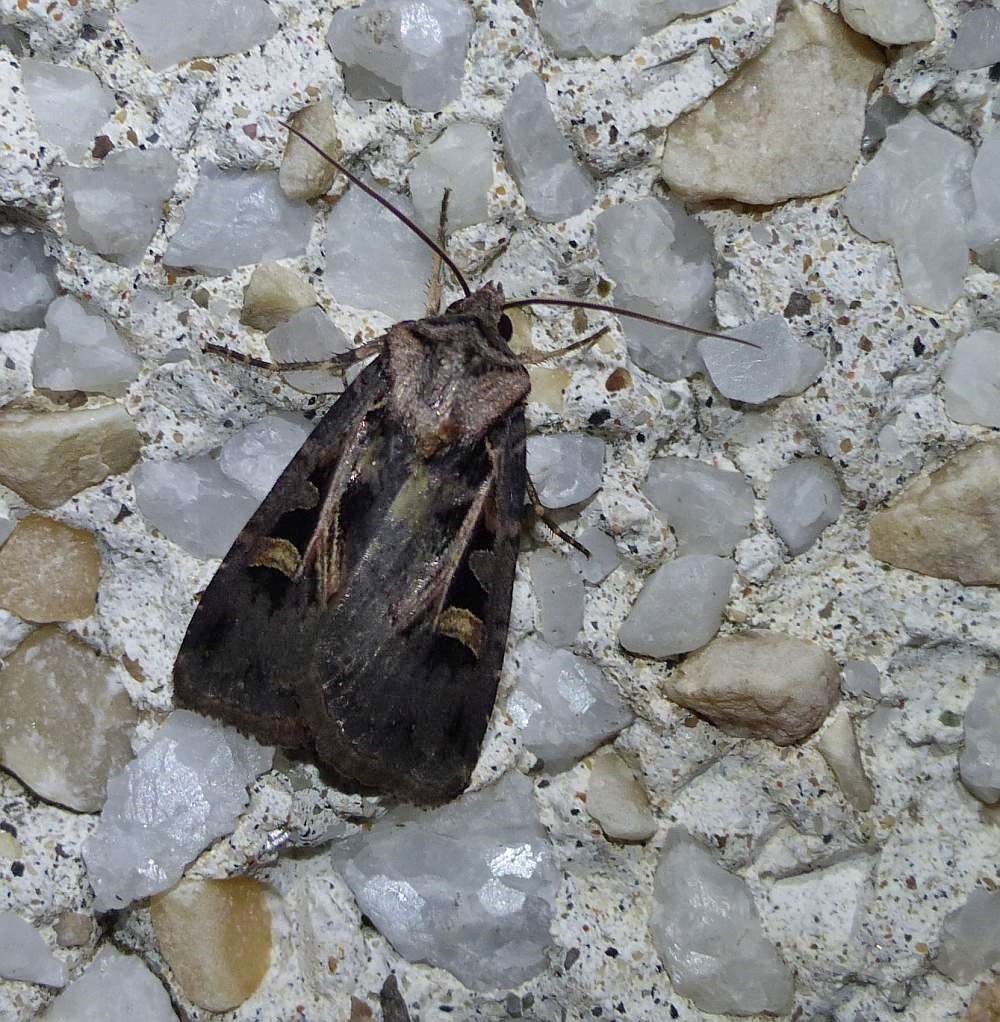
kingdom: Animalia
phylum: Arthropoda
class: Insecta
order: Lepidoptera
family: Noctuidae
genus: Feltia
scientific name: Feltia herilis
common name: Master's dart
